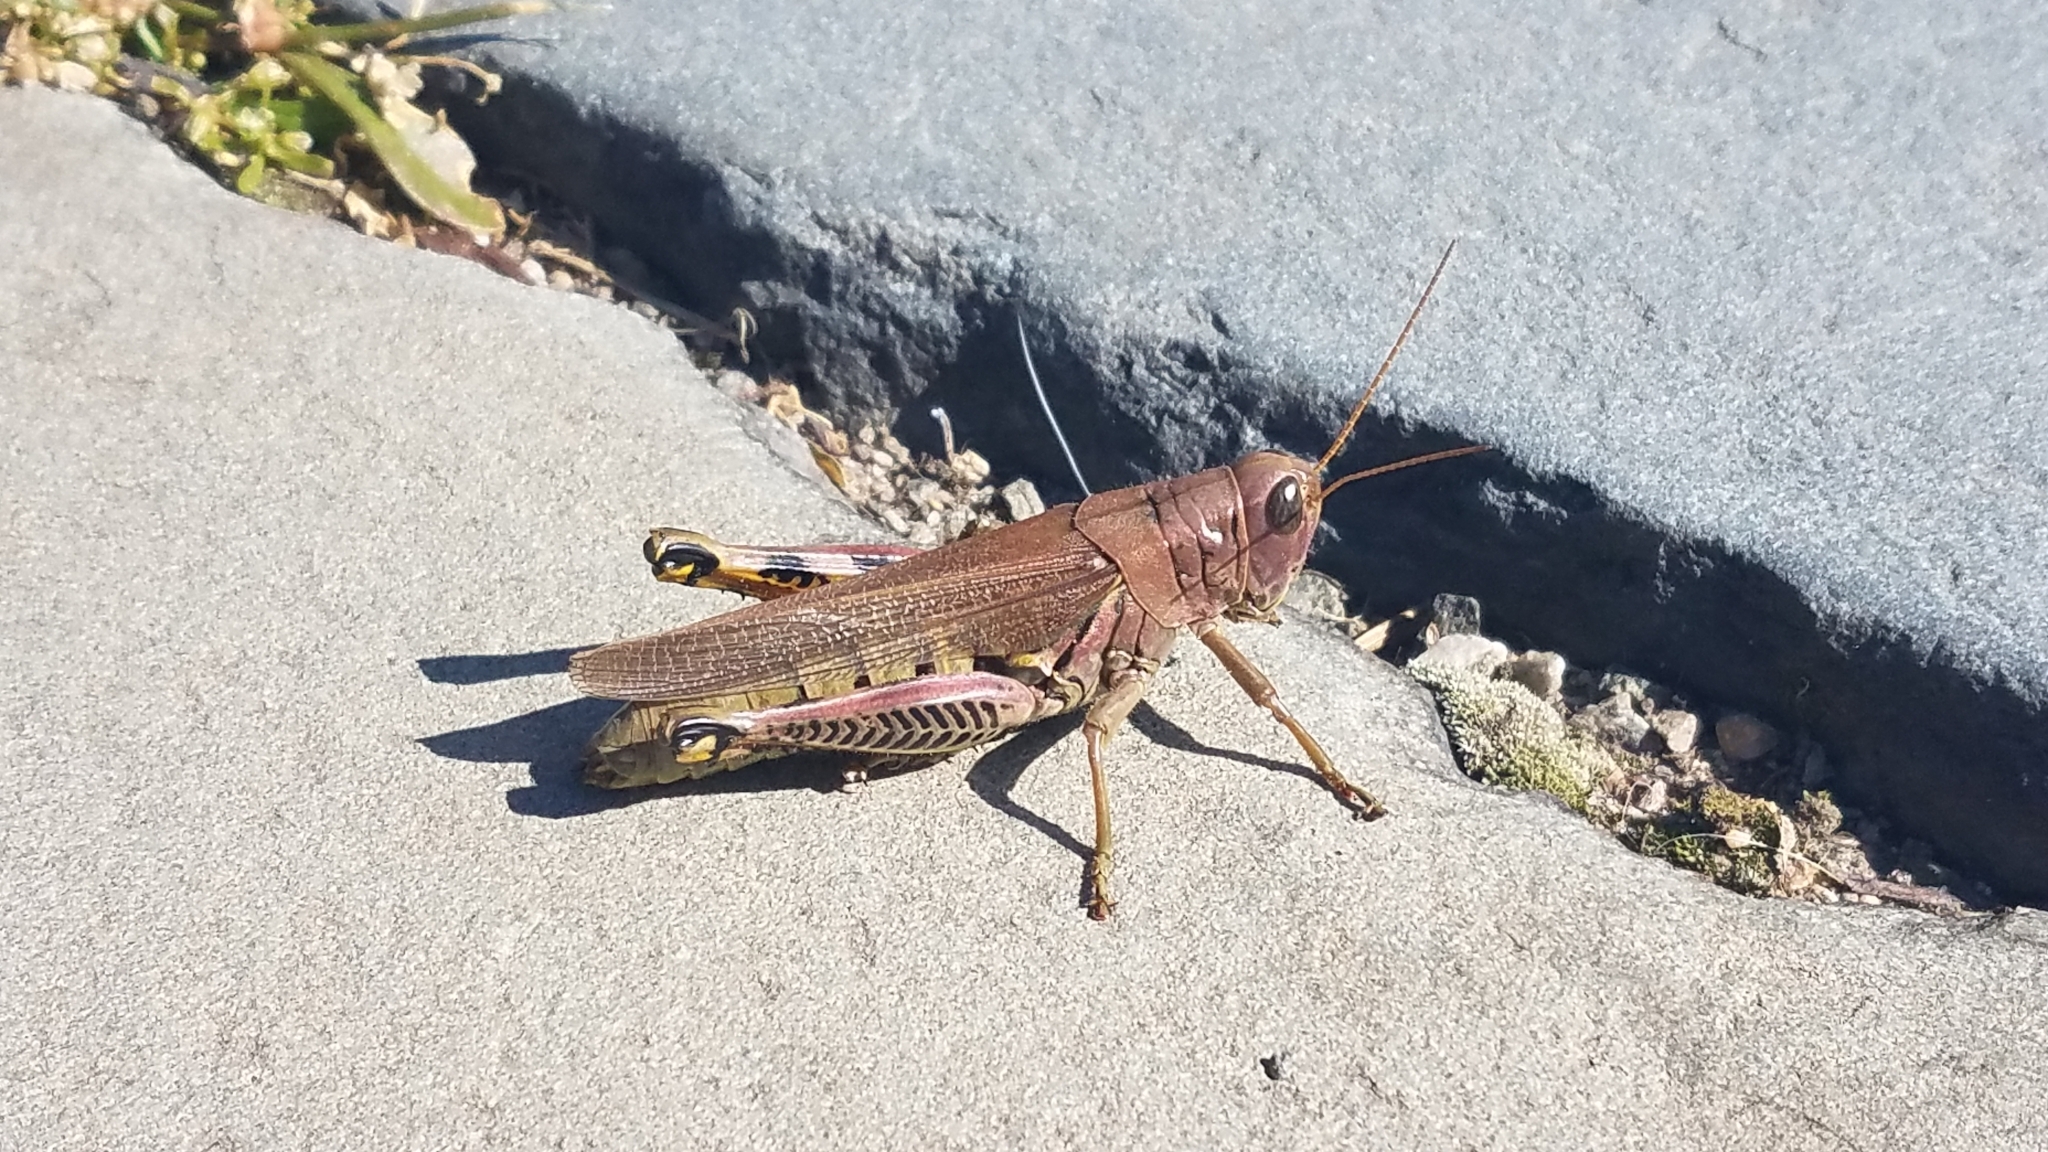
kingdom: Animalia
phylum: Arthropoda
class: Insecta
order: Orthoptera
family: Acrididae
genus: Melanoplus
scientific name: Melanoplus differentialis
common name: Differential grasshopper
